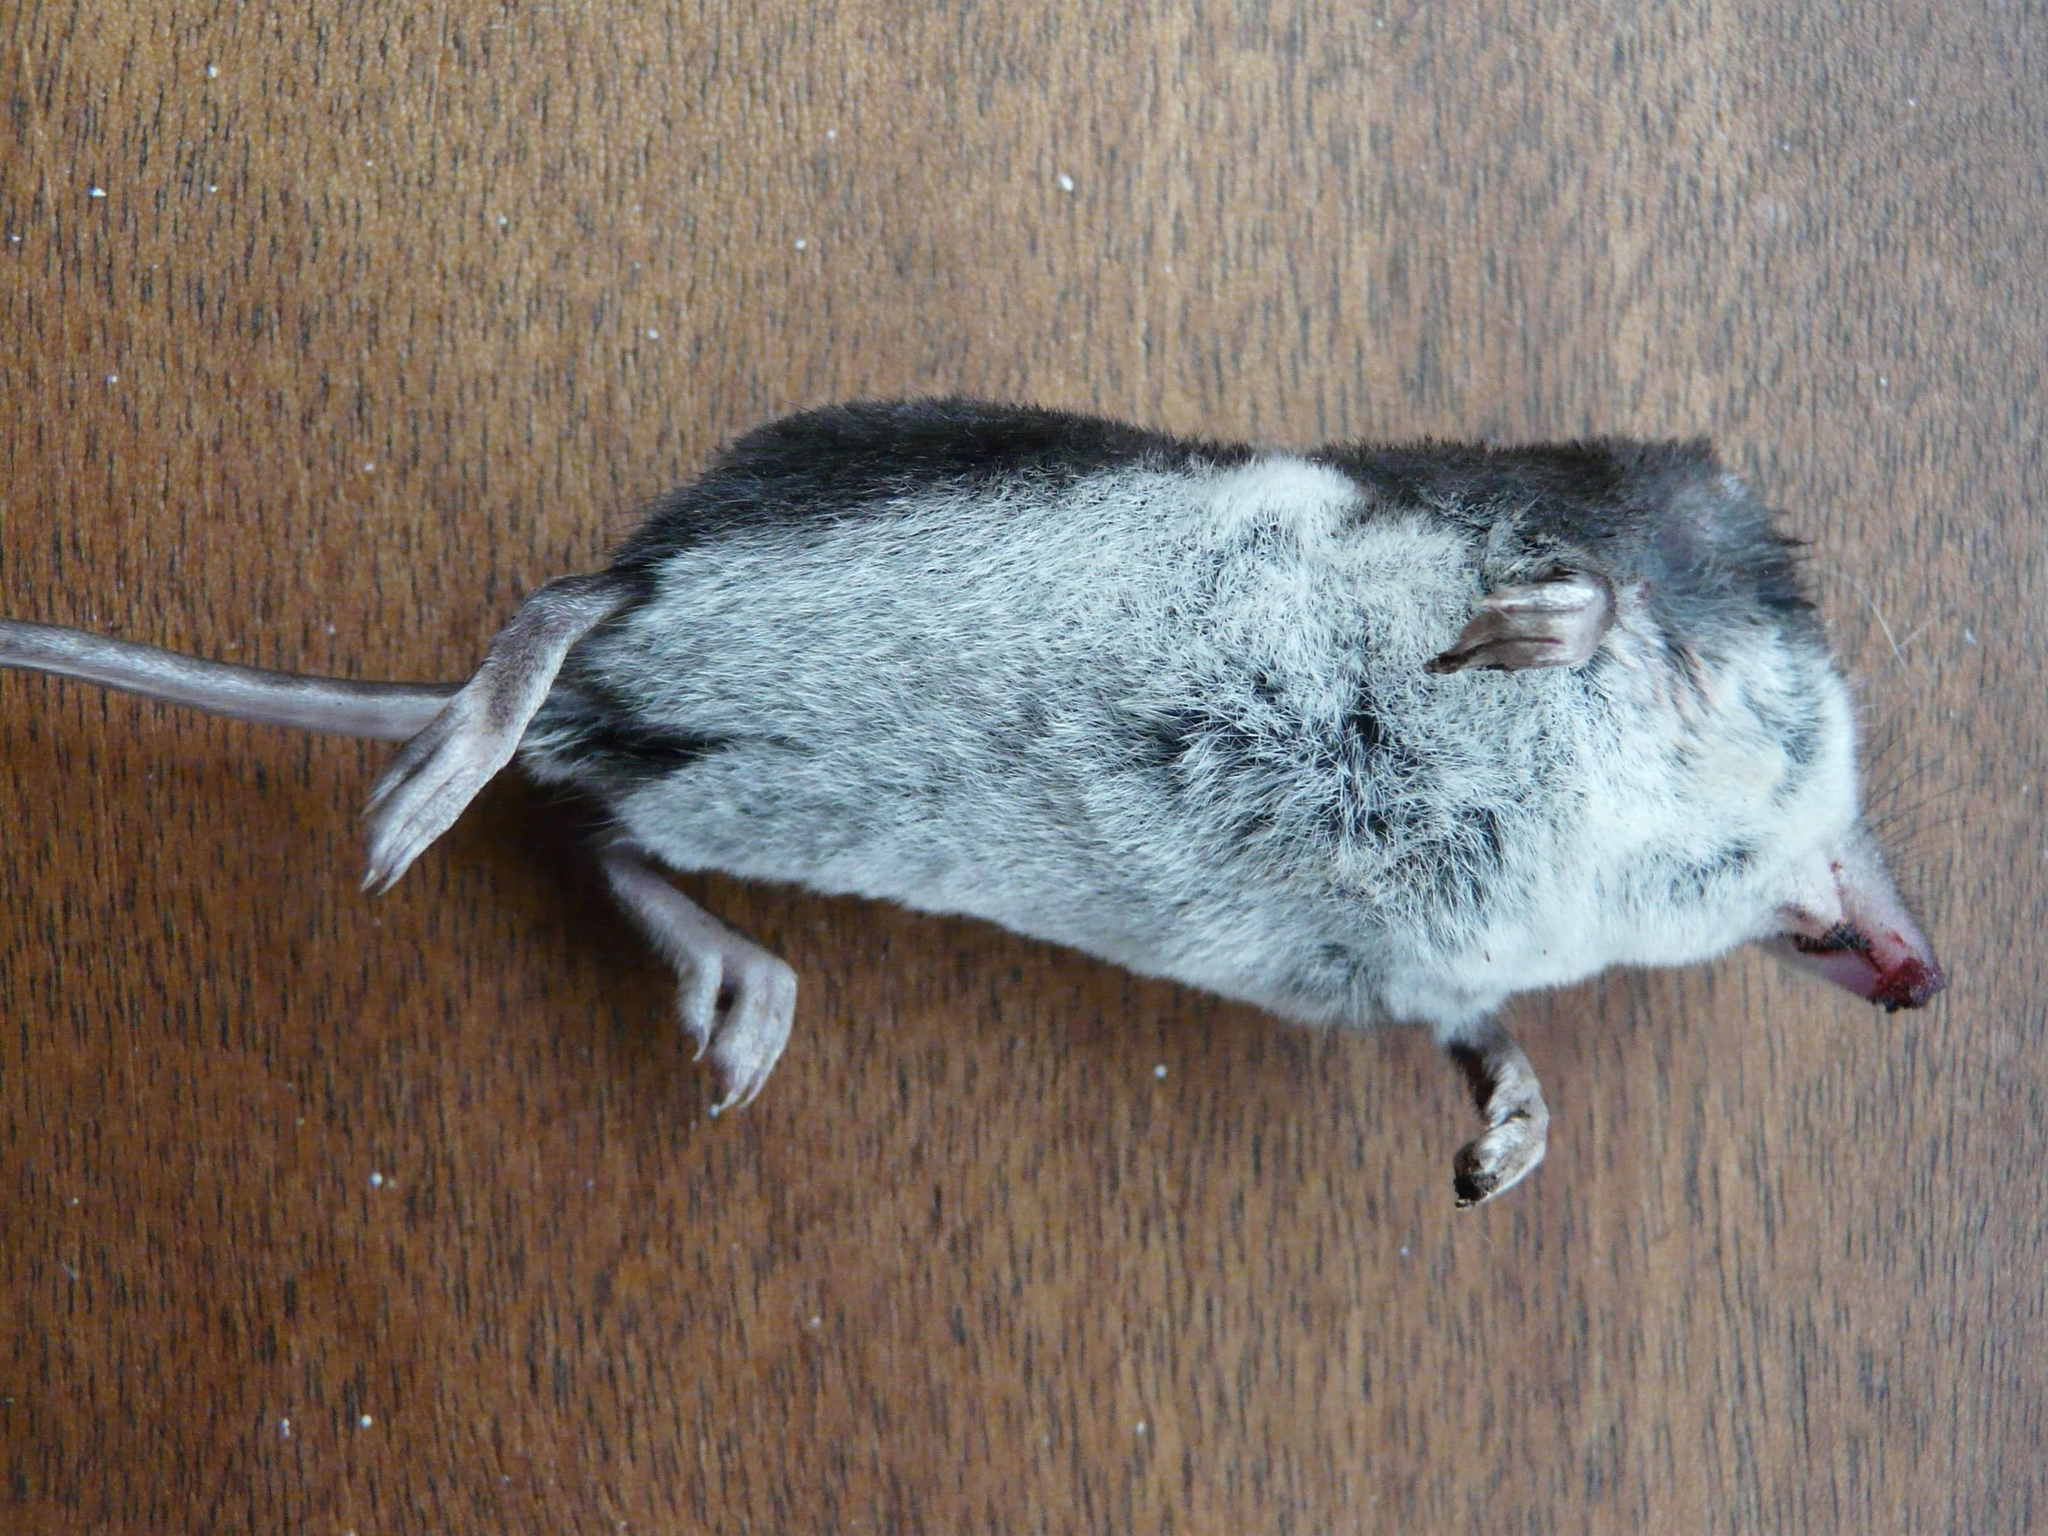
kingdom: Animalia
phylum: Chordata
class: Mammalia
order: Soricomorpha
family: Soricidae
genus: Neomys
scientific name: Neomys fodiens
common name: Eurasian water shrew
